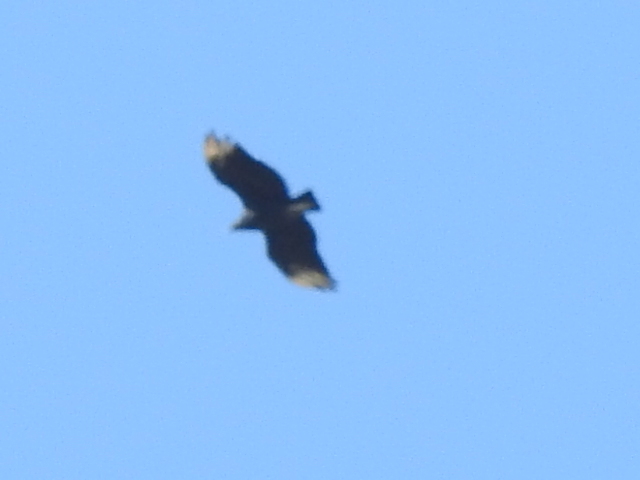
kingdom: Animalia
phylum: Chordata
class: Aves
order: Accipitriformes
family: Cathartidae
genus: Coragyps
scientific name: Coragyps atratus
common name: Black vulture
